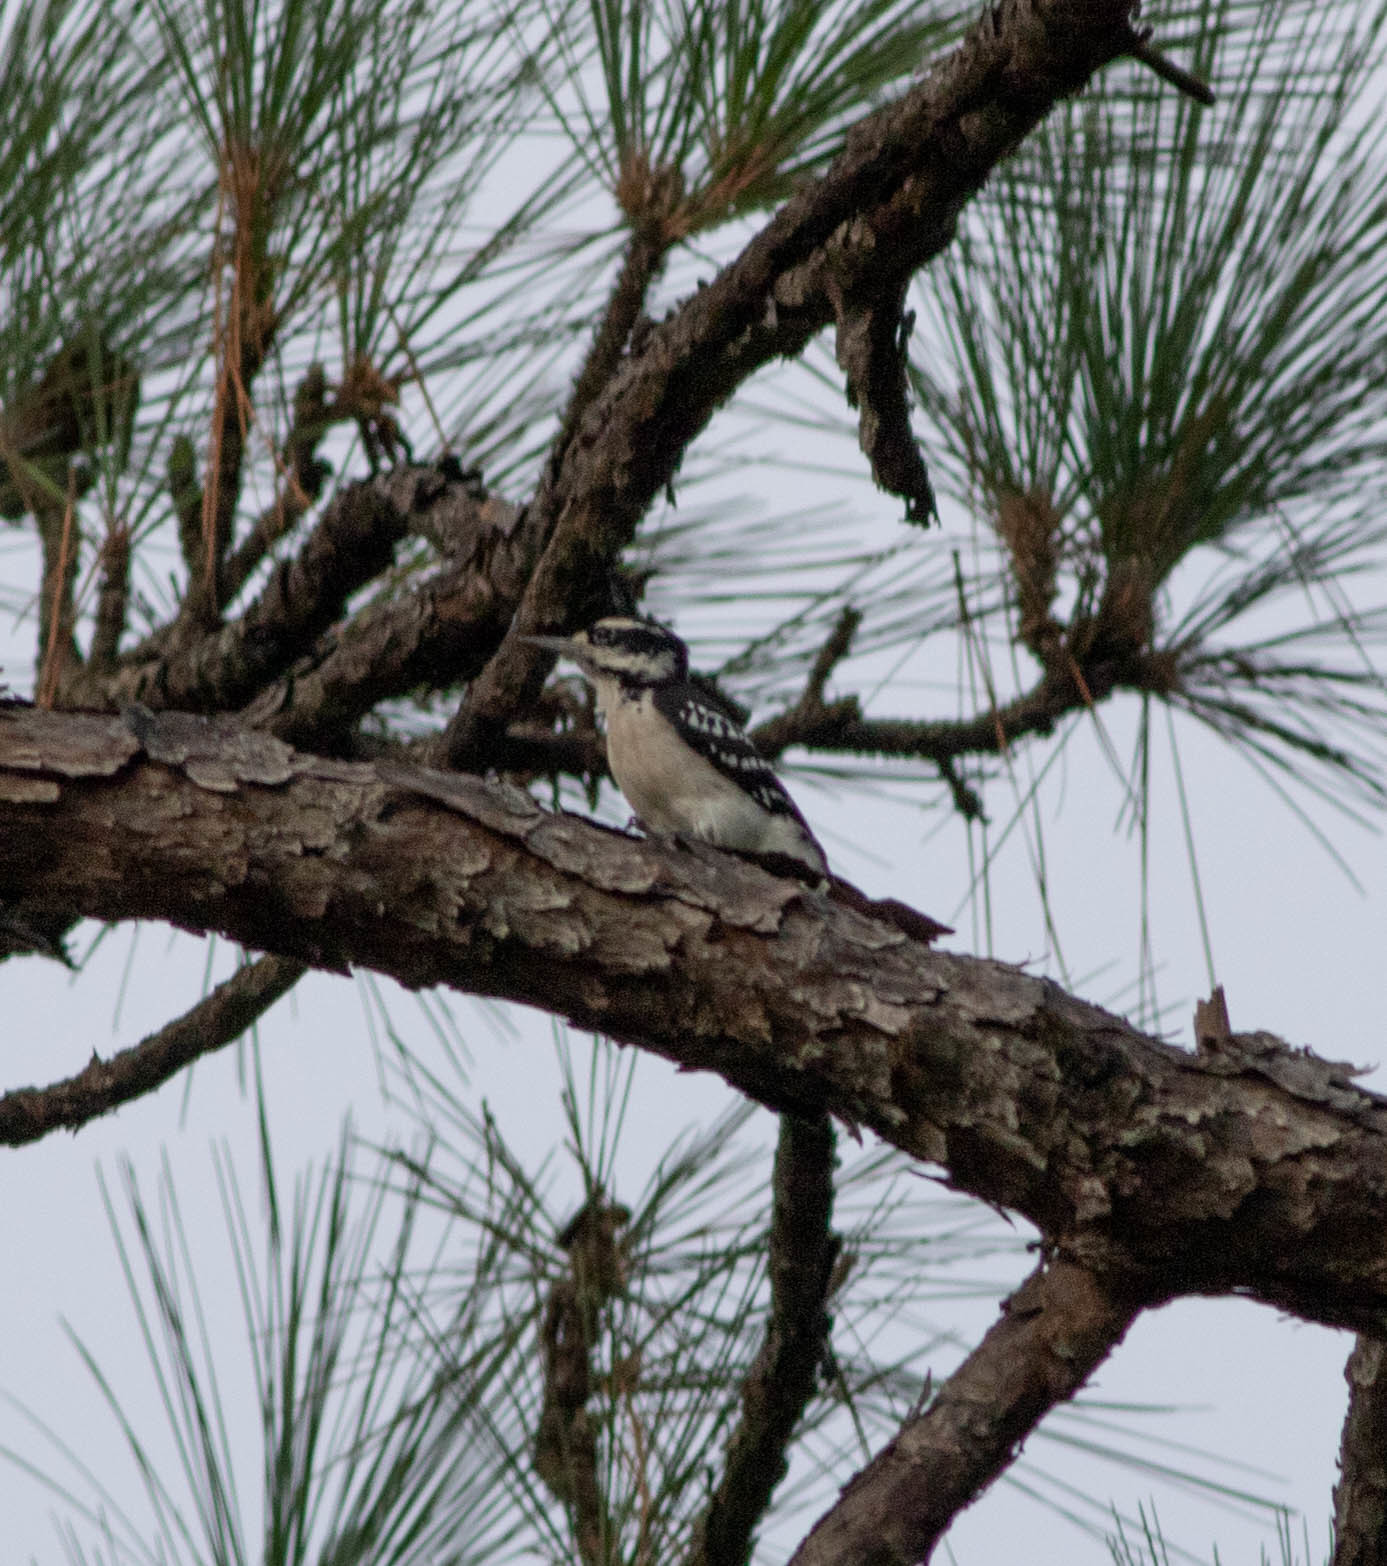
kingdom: Animalia
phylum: Chordata
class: Aves
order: Piciformes
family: Picidae
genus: Leuconotopicus
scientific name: Leuconotopicus villosus
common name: Hairy woodpecker
